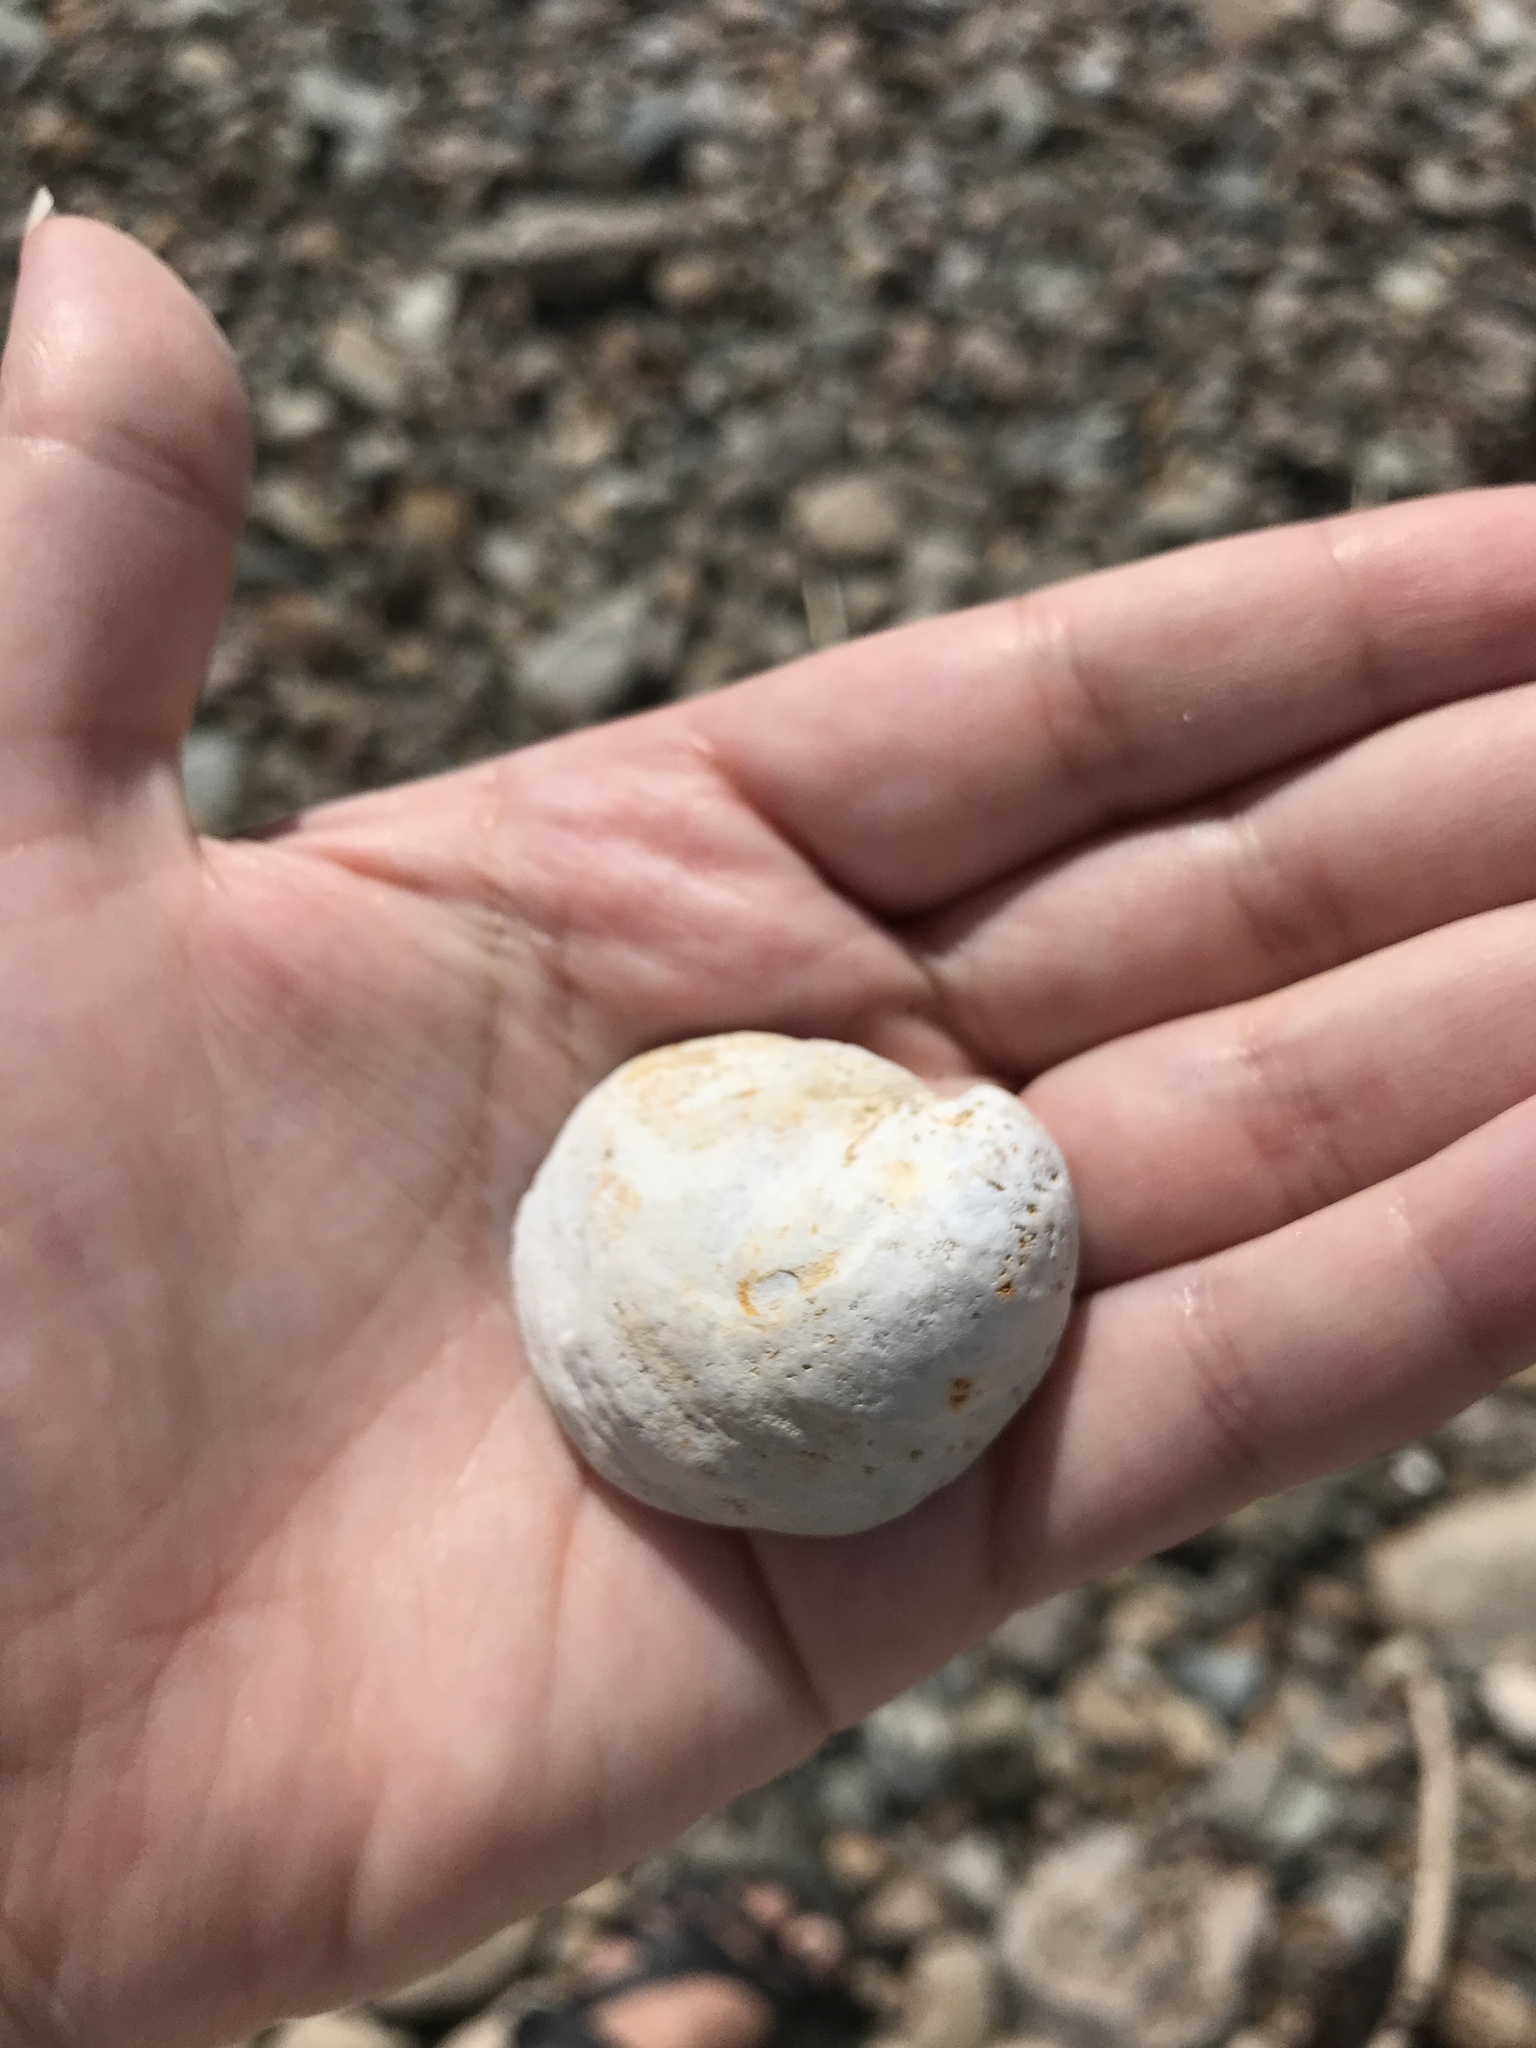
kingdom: Animalia
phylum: Mollusca
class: Gastropoda
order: Littorinimorpha
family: Calyptraeidae
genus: Crepidula
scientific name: Crepidula fornicata
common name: Slipper limpet
